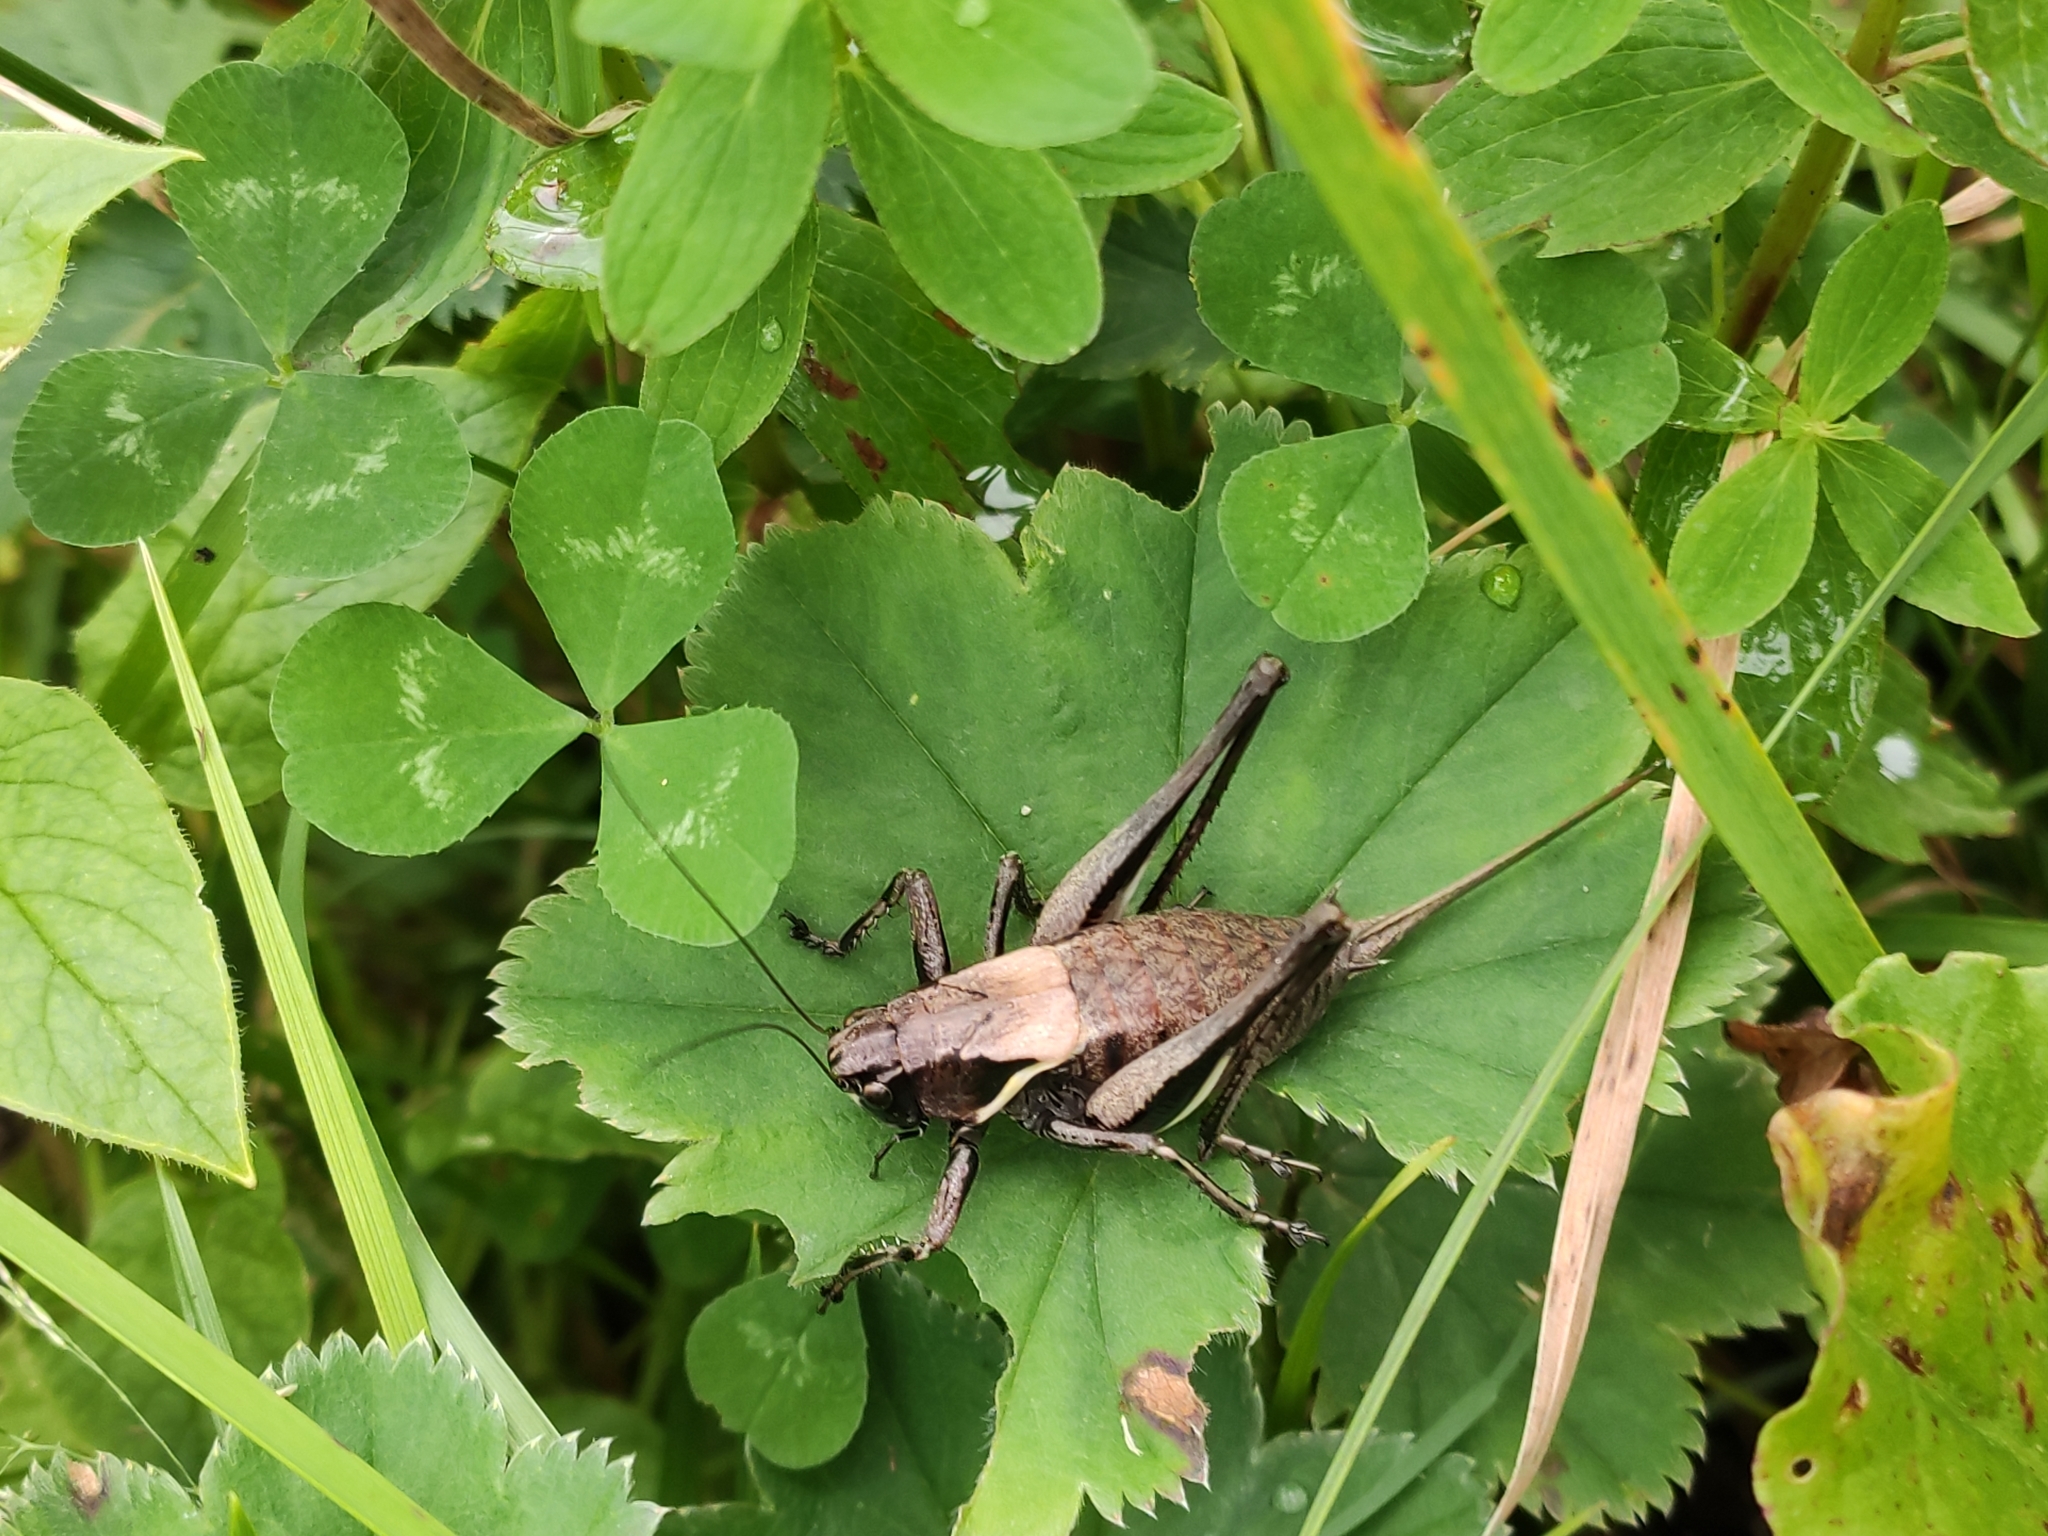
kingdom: Animalia
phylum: Arthropoda
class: Insecta
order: Orthoptera
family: Tettigoniidae
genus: Pholidoptera
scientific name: Pholidoptera aptera
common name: Alpine dark bush-cricket
